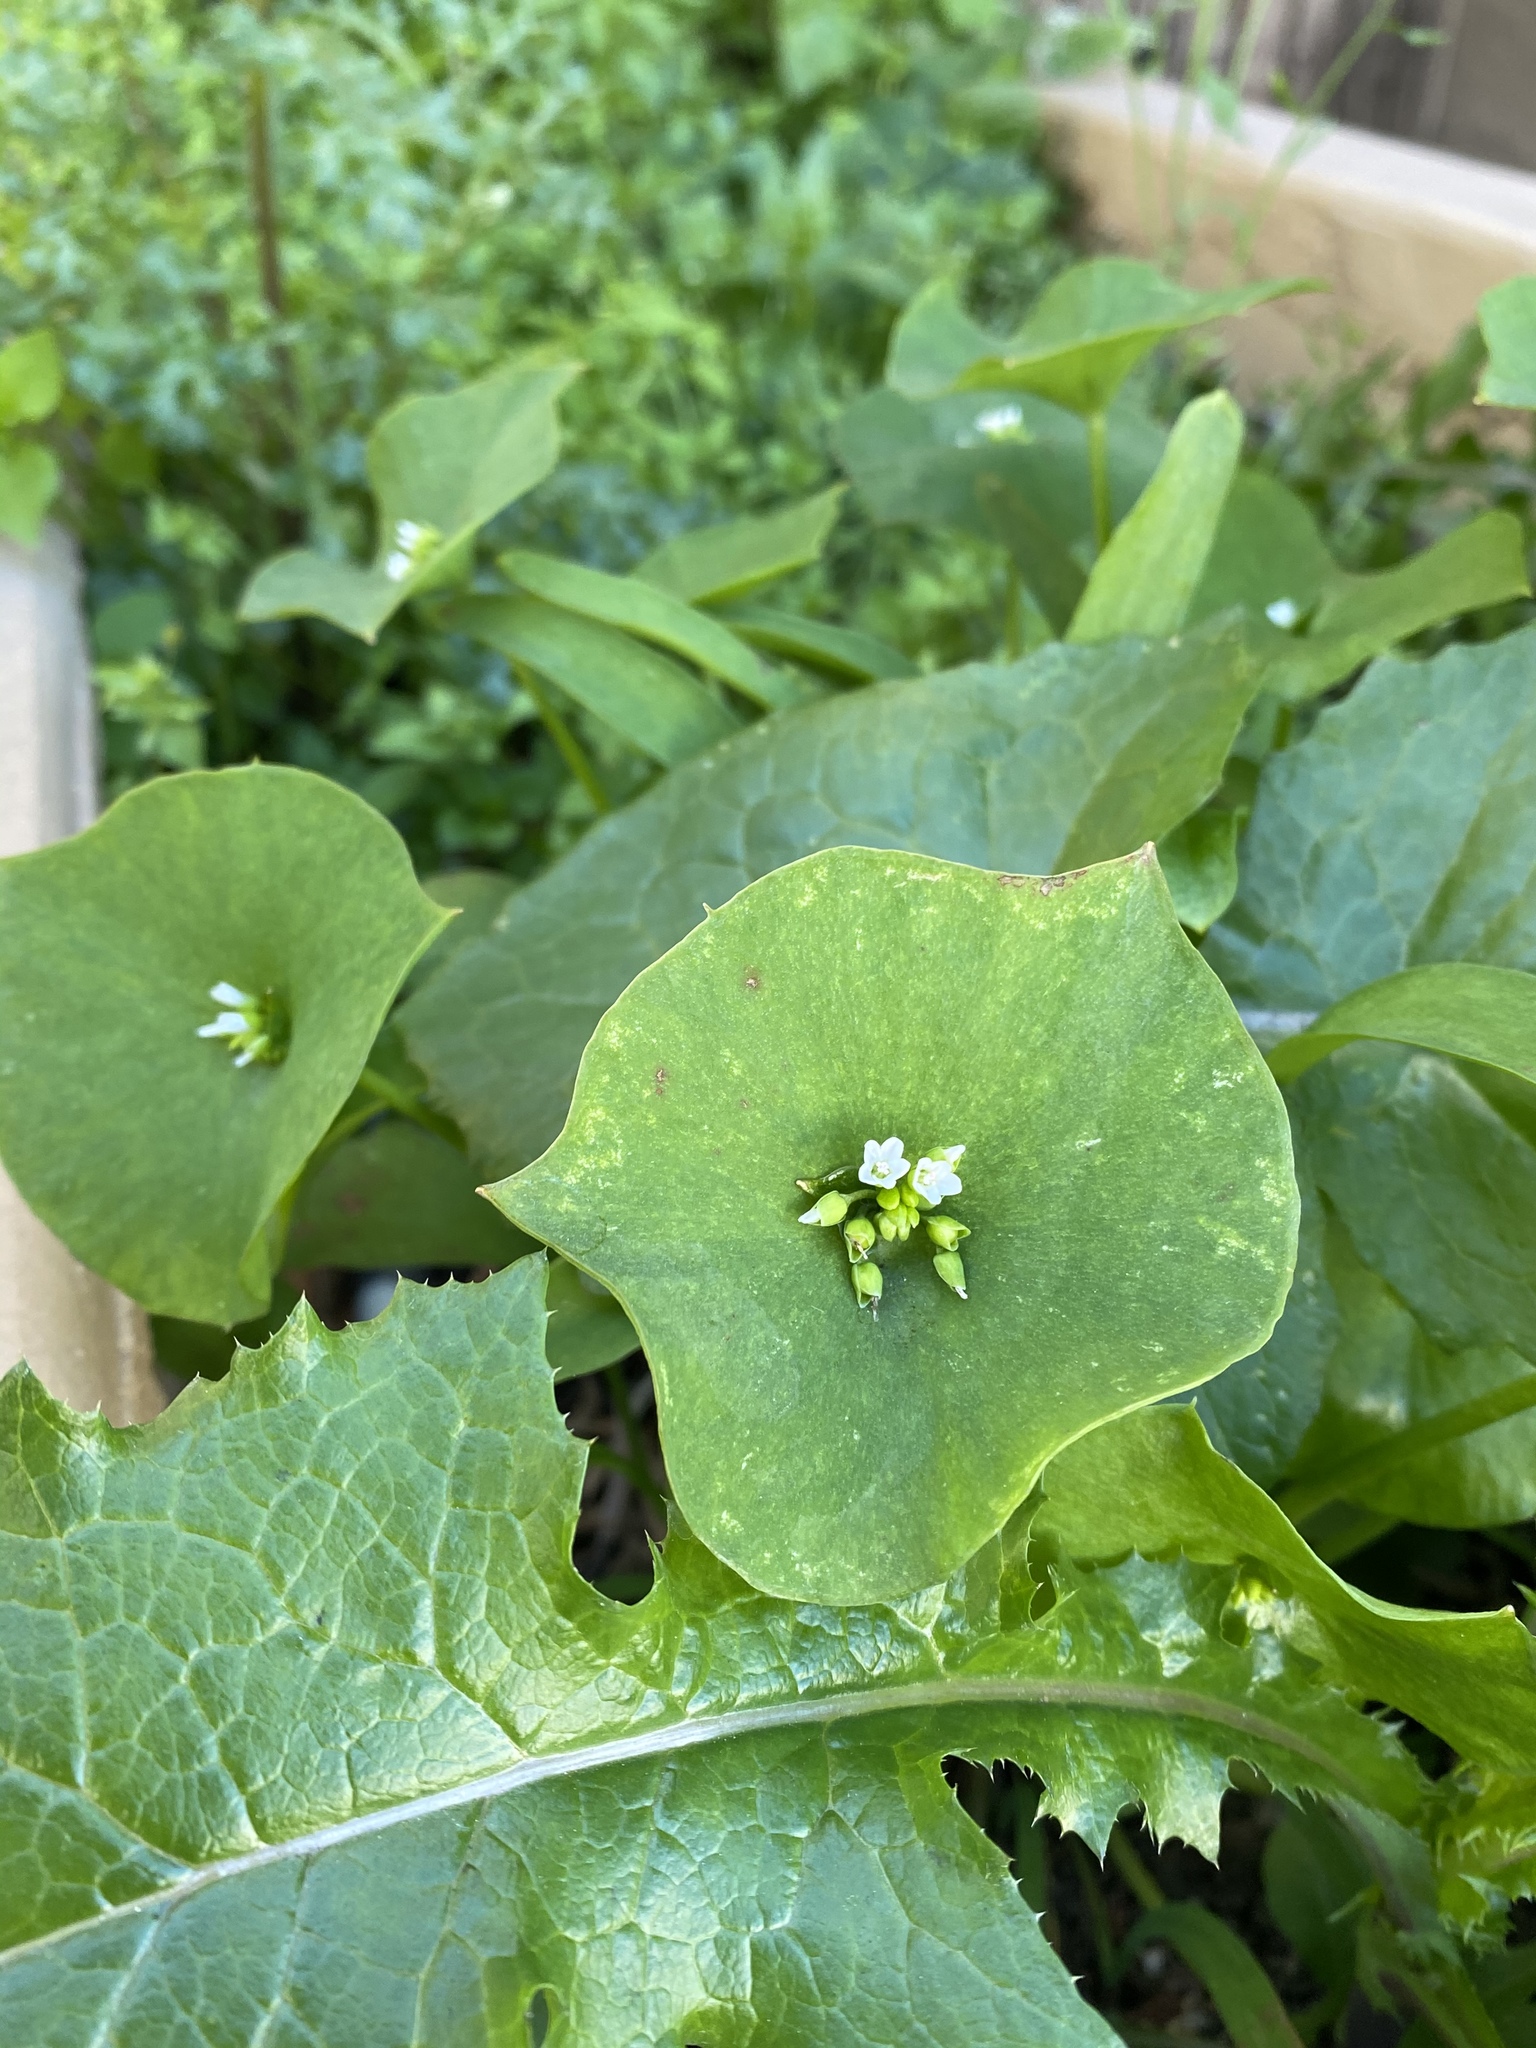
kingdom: Plantae
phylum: Tracheophyta
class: Magnoliopsida
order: Caryophyllales
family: Montiaceae
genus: Claytonia
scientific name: Claytonia perfoliata
